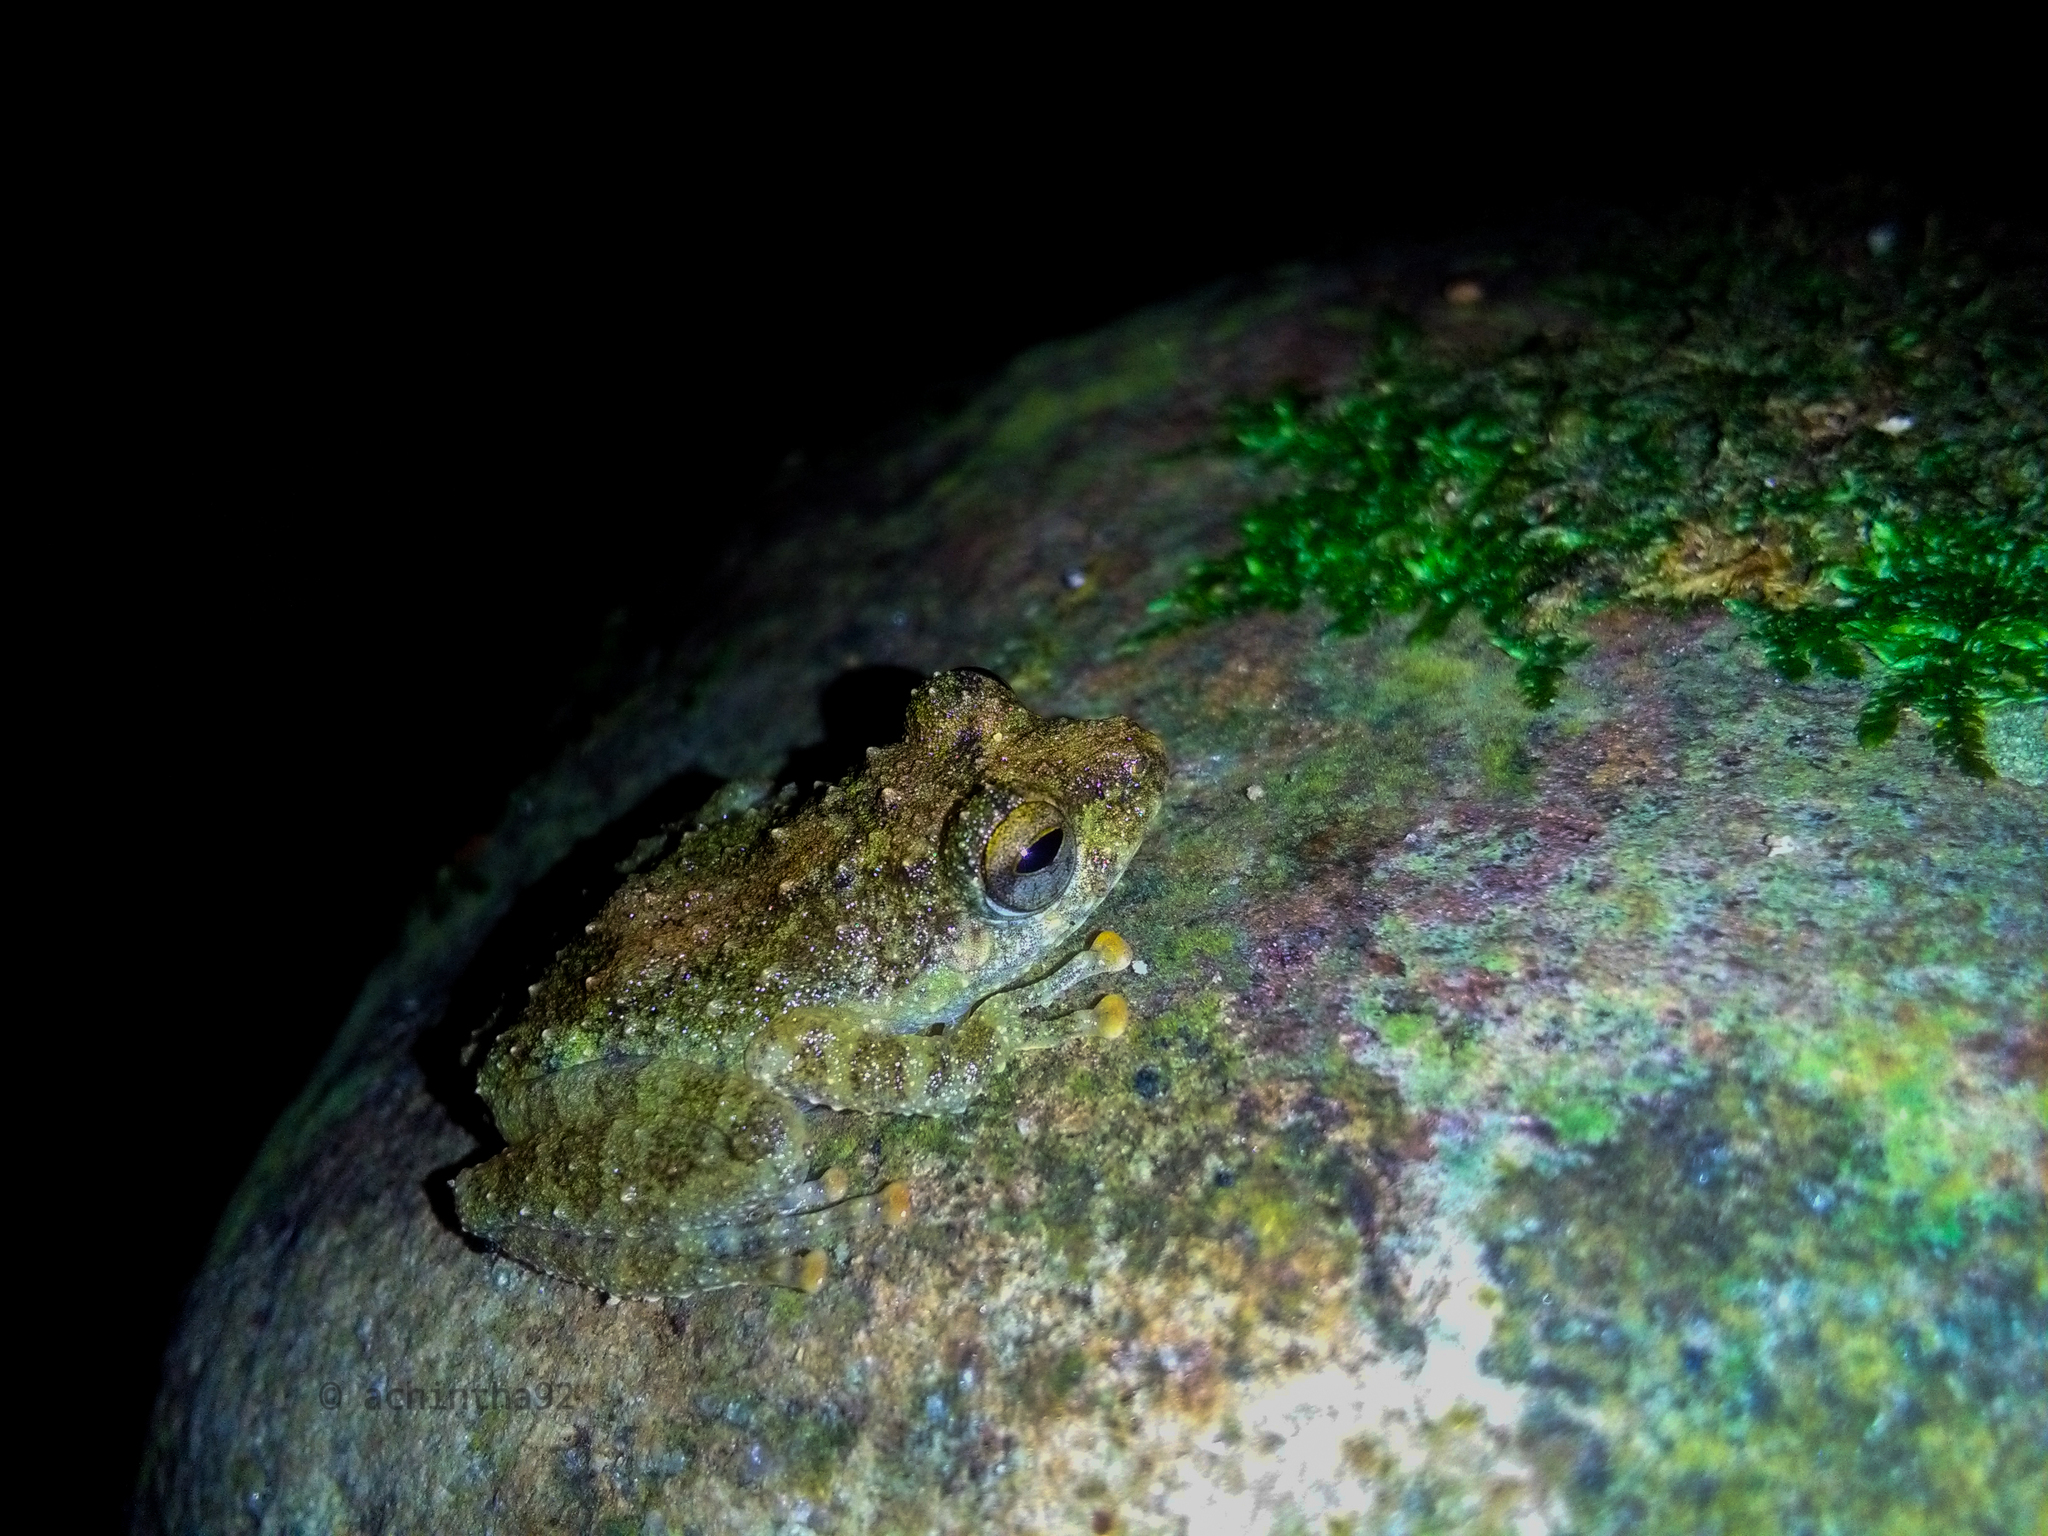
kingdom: Animalia
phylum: Chordata
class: Amphibia
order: Anura
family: Rhacophoridae
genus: Pseudophilautus
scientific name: Pseudophilautus fergusonianus
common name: Ferguson's shrub frog
